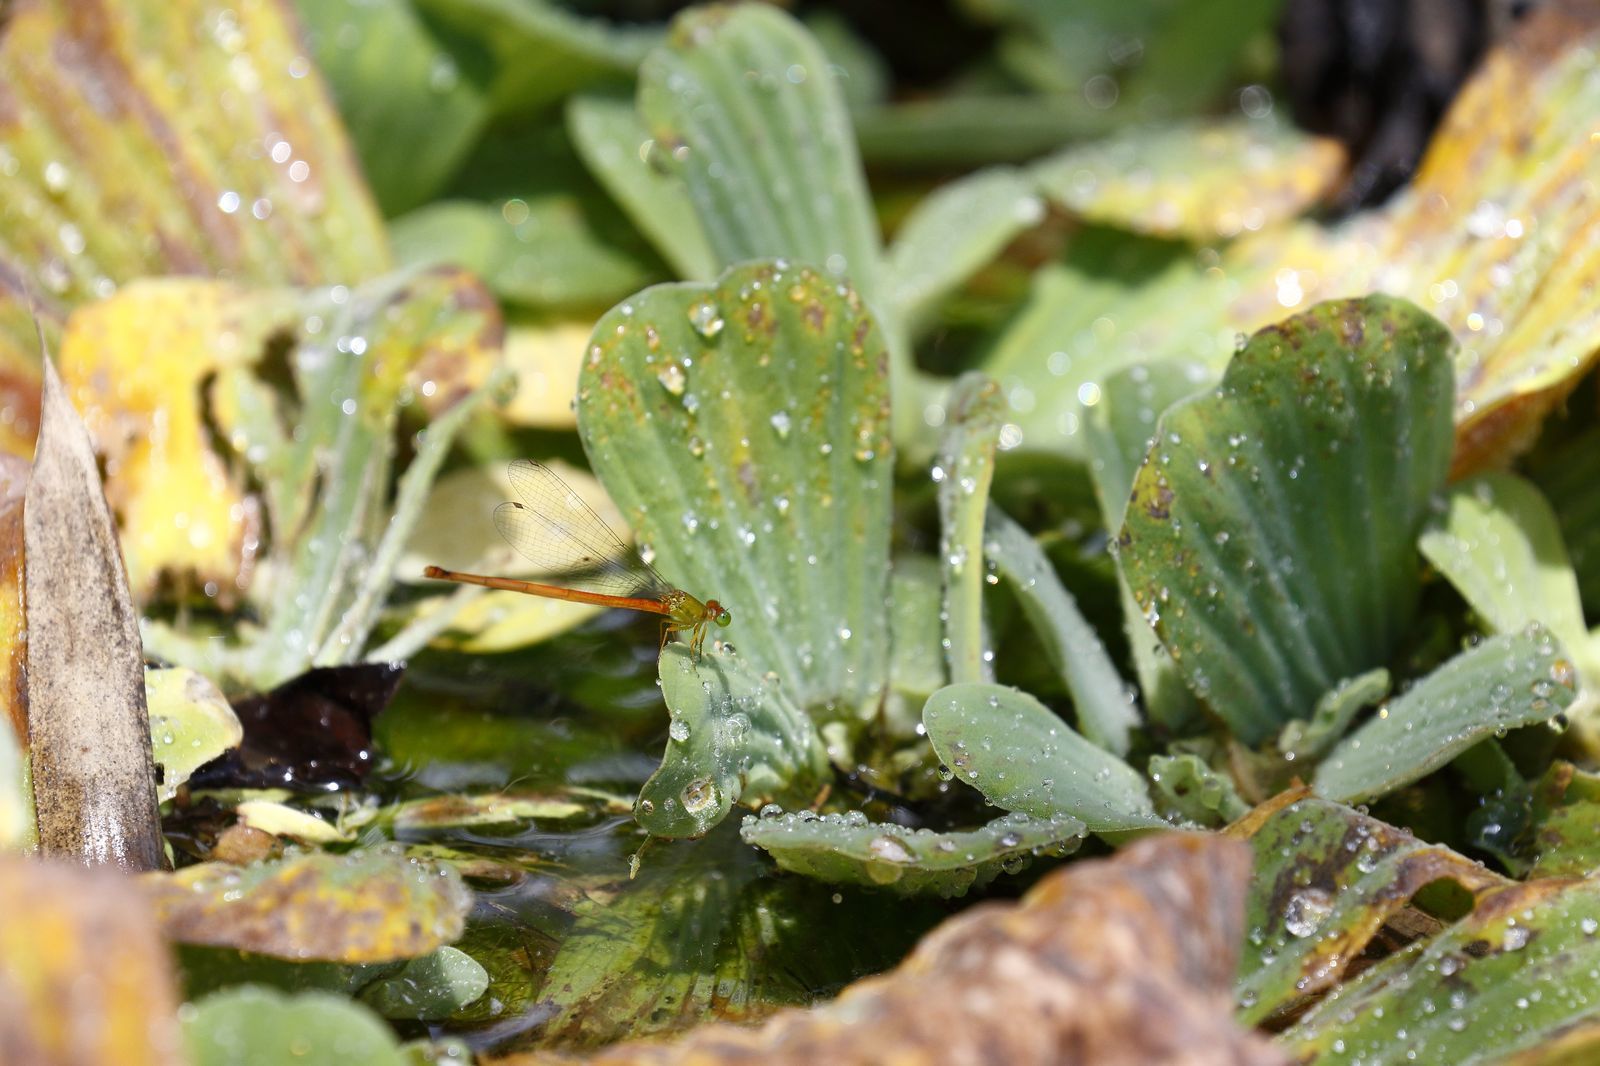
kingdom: Animalia
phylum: Arthropoda
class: Insecta
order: Odonata
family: Coenagrionidae
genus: Ceriagrion
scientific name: Ceriagrion auranticum
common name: Orange-tailed sprite
